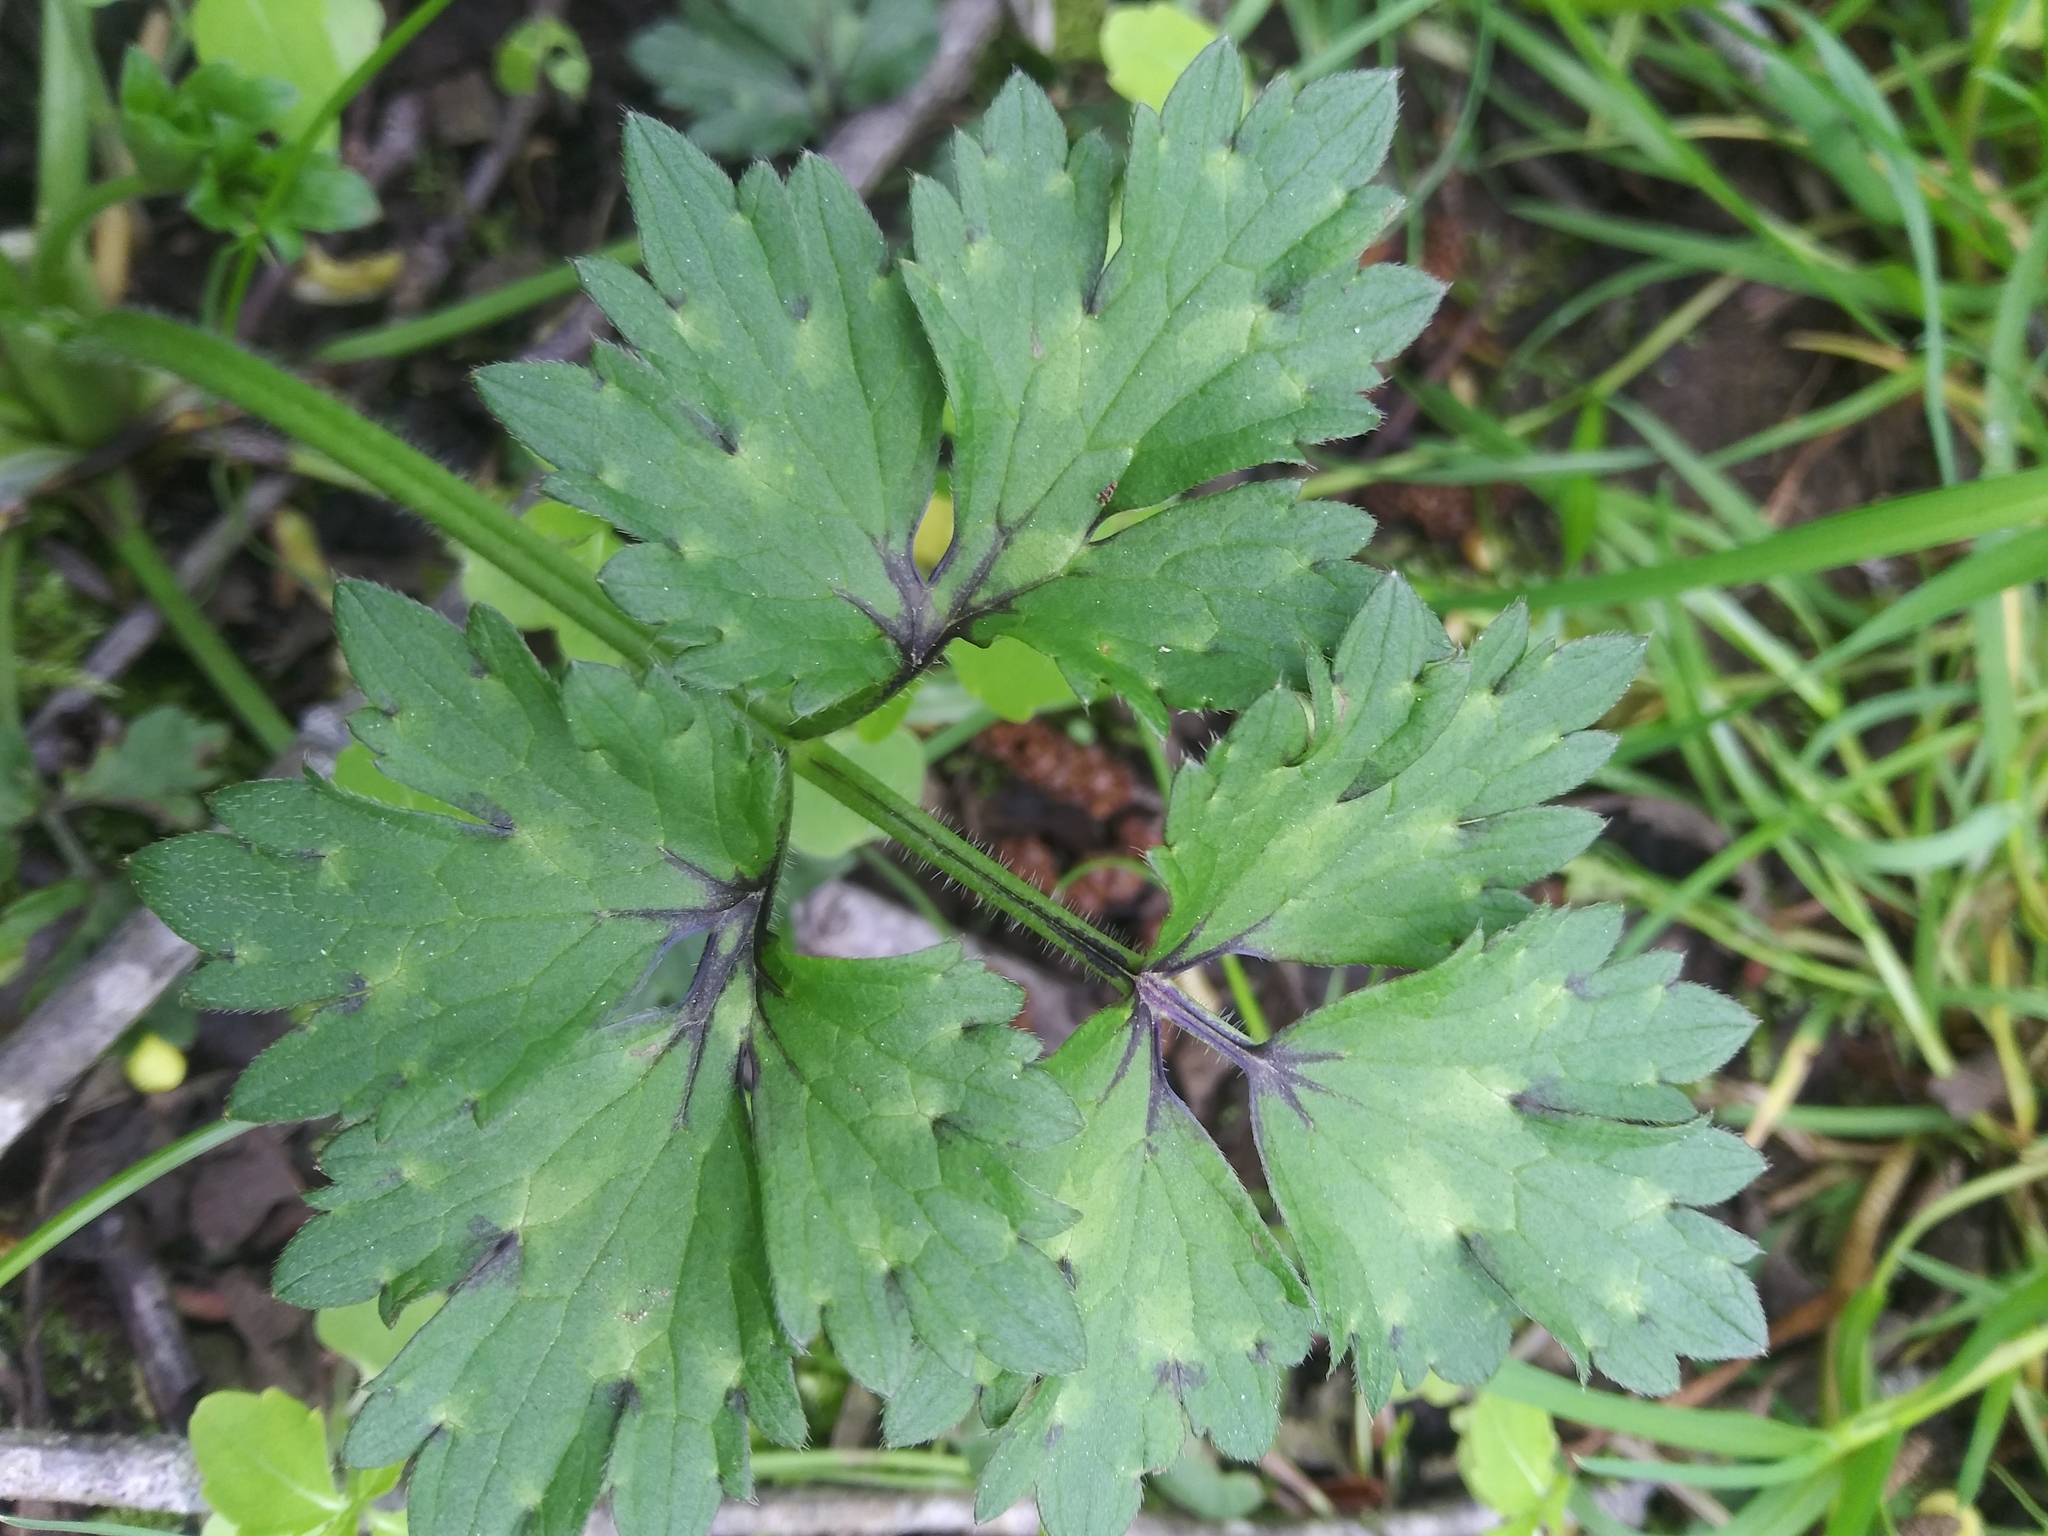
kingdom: Plantae
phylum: Tracheophyta
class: Magnoliopsida
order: Ranunculales
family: Ranunculaceae
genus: Ranunculus
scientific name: Ranunculus repens
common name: Creeping buttercup
